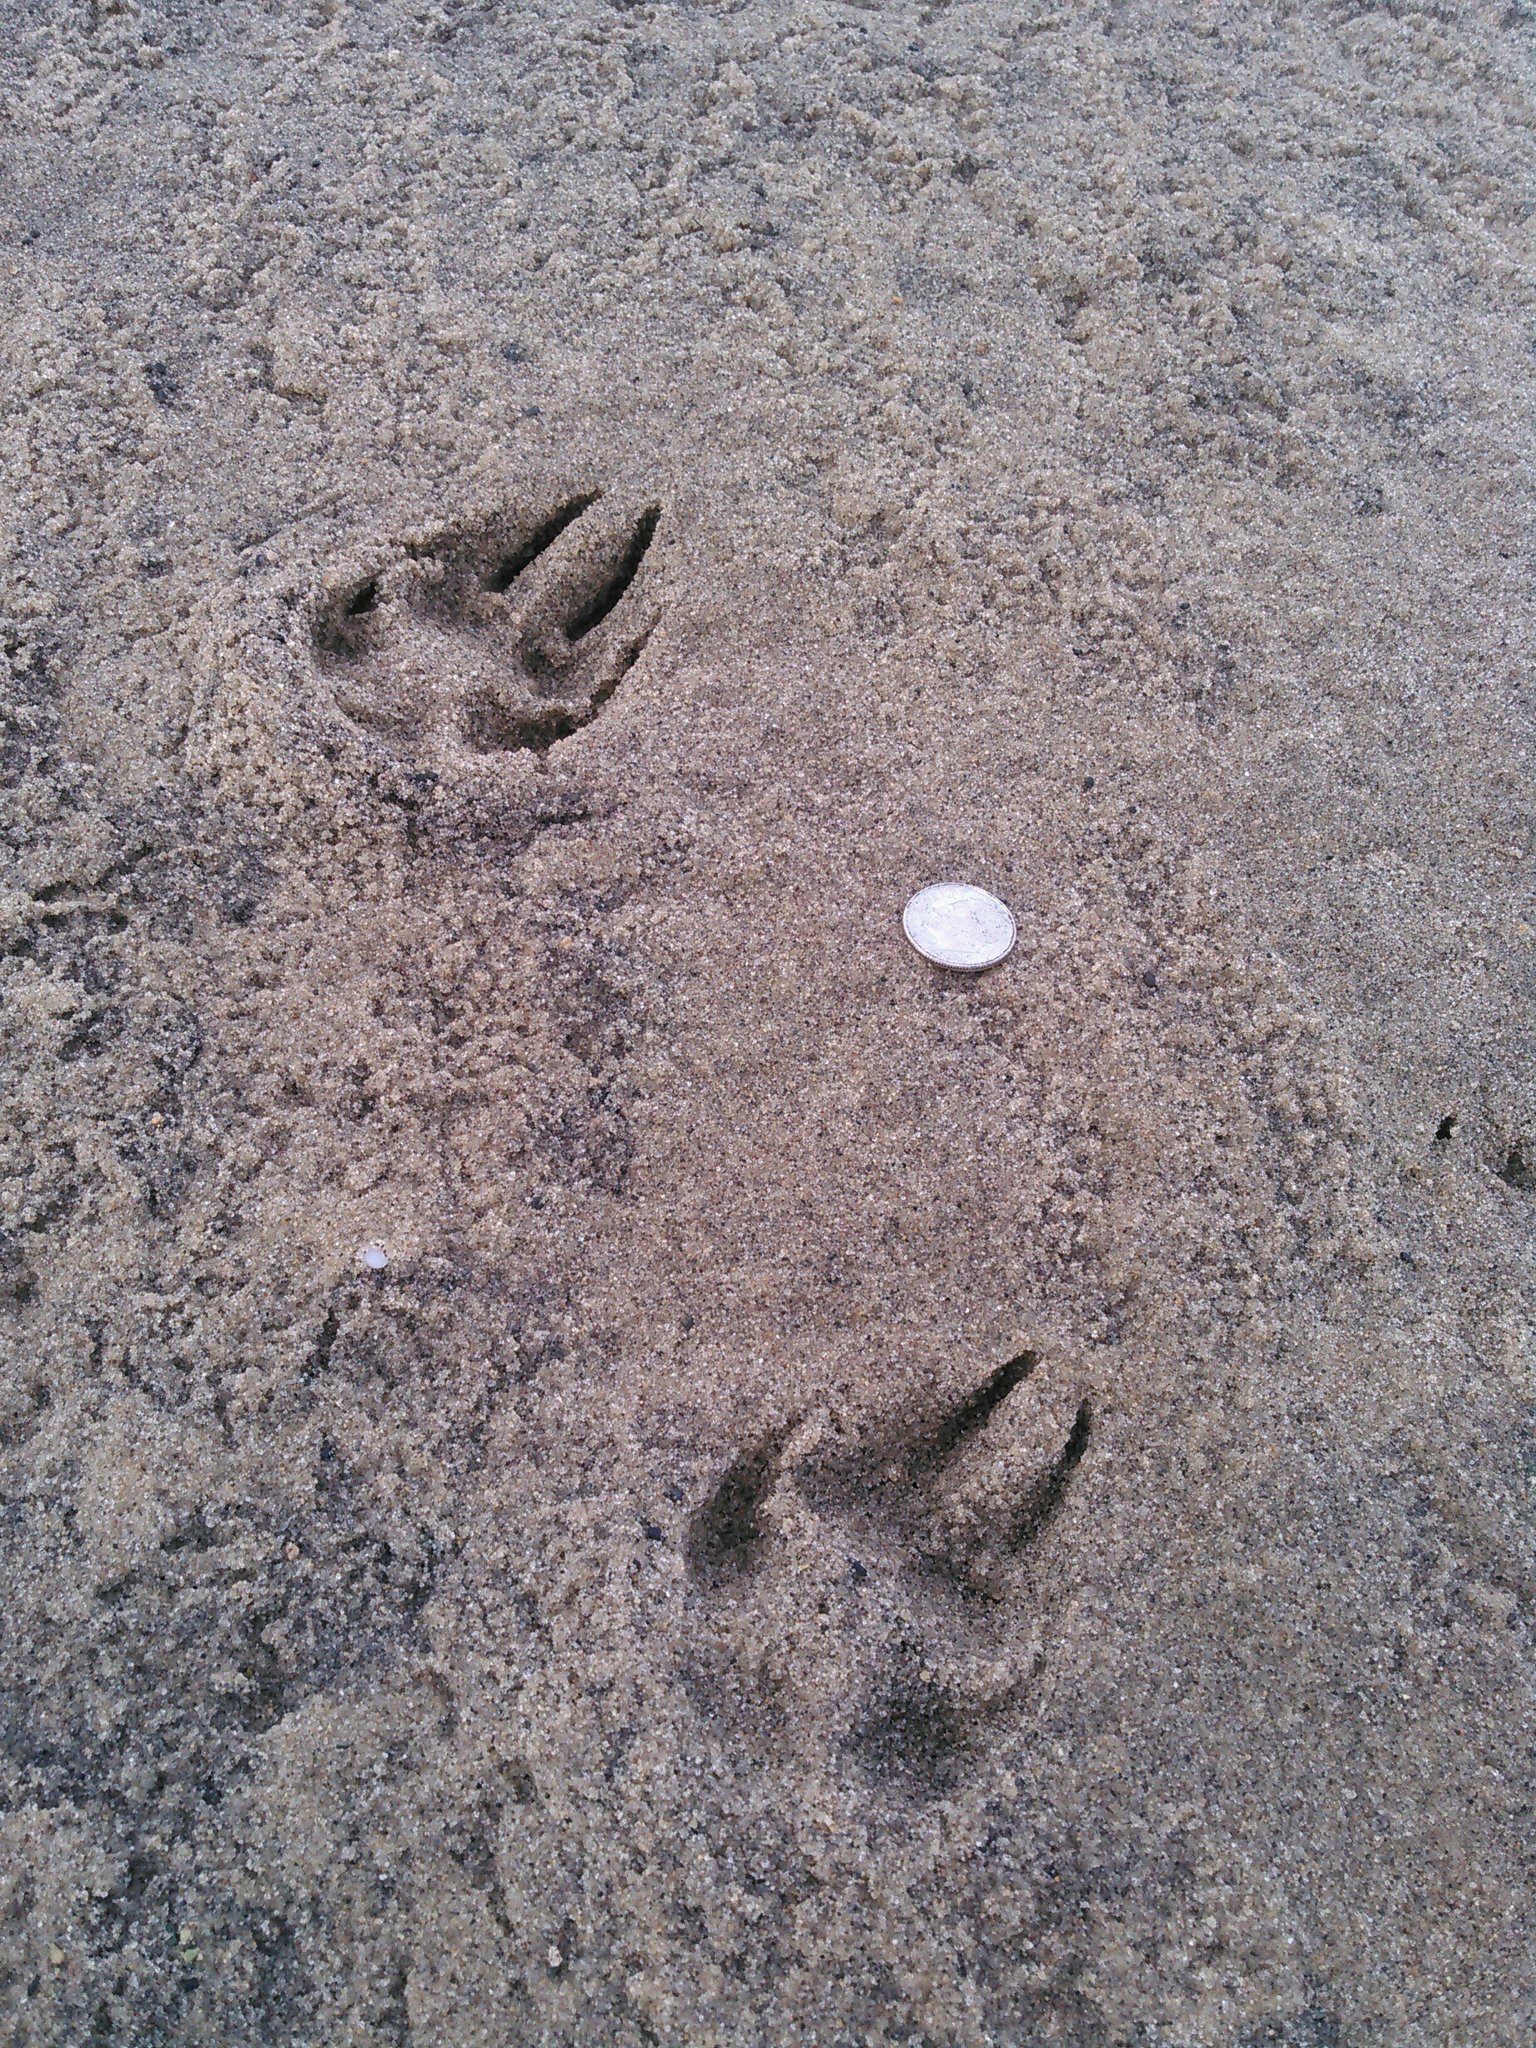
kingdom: Animalia
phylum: Chordata
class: Mammalia
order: Carnivora
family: Canidae
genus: Vulpes
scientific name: Vulpes vulpes
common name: Red fox
